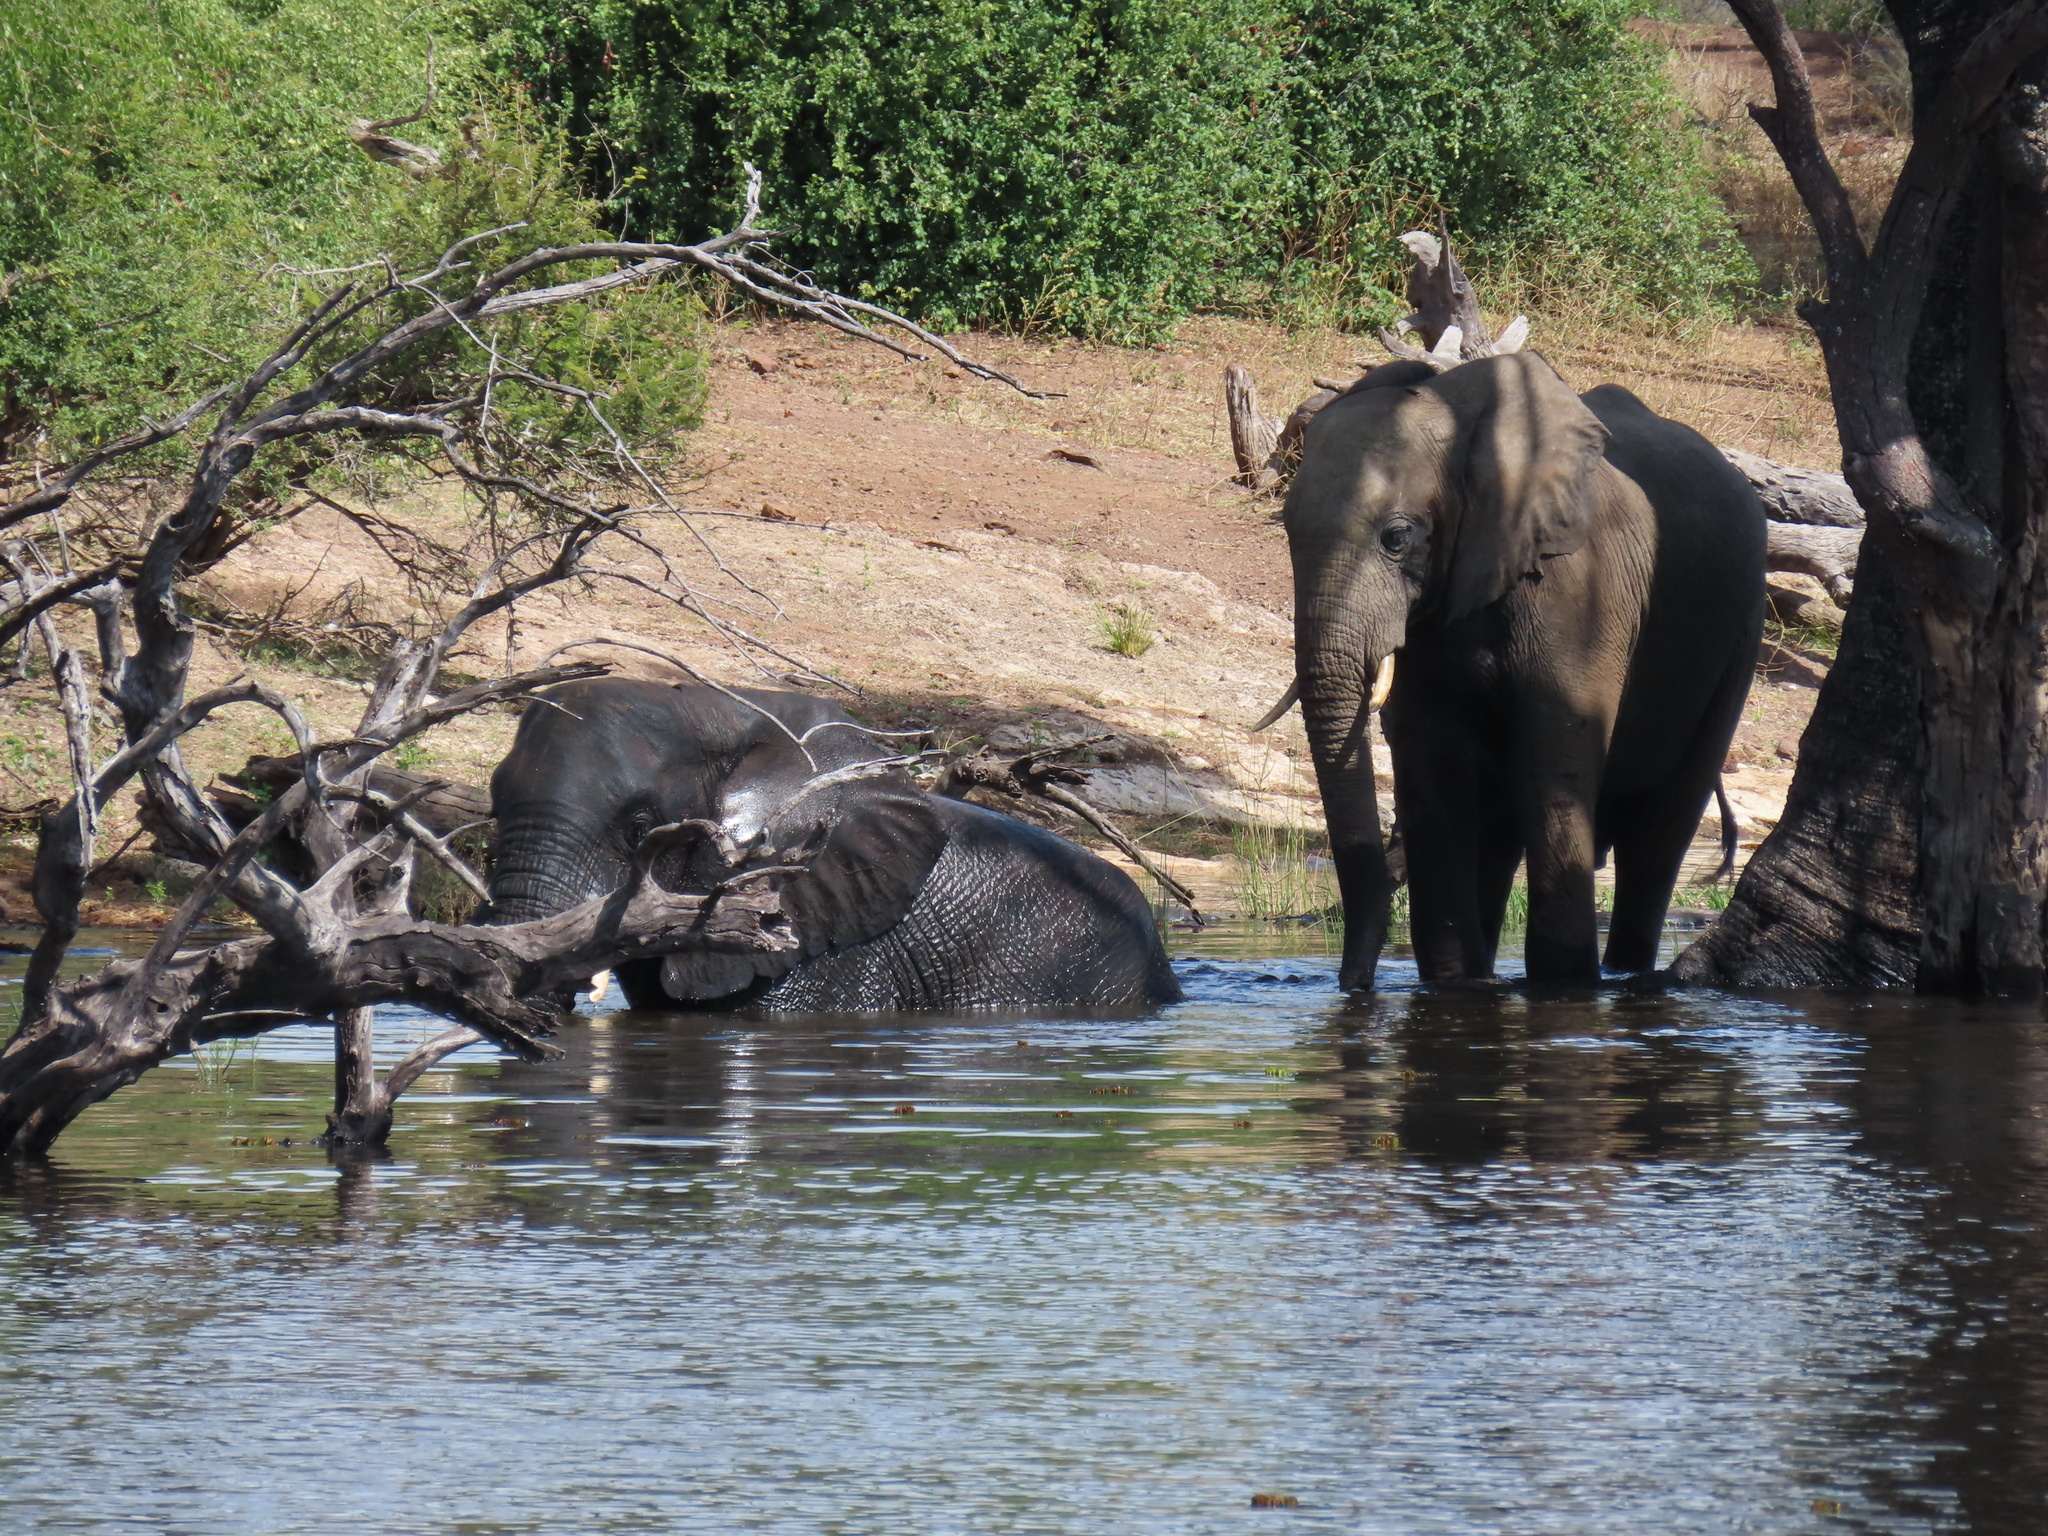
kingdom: Animalia
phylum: Chordata
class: Mammalia
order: Proboscidea
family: Elephantidae
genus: Loxodonta
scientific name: Loxodonta africana
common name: African elephant
